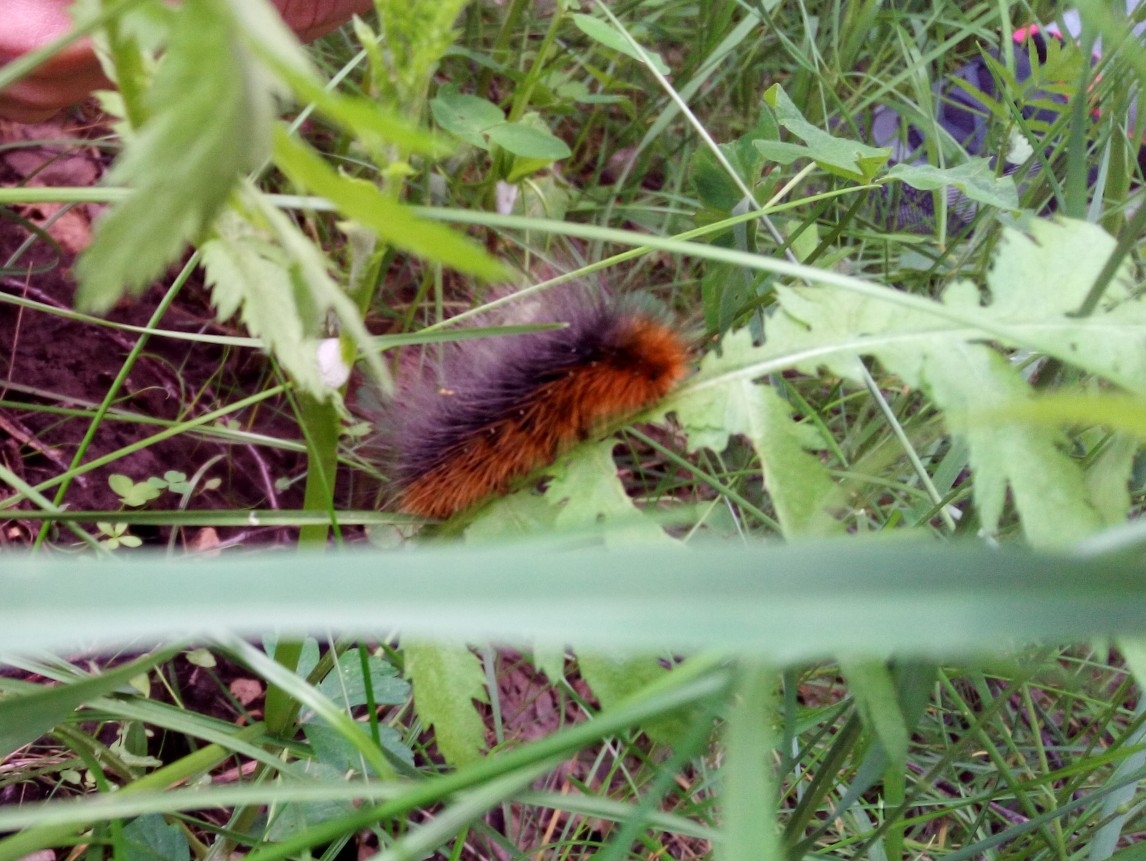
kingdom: Animalia
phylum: Arthropoda
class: Insecta
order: Lepidoptera
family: Erebidae
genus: Arctia
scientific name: Arctia caja
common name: Garden tiger
